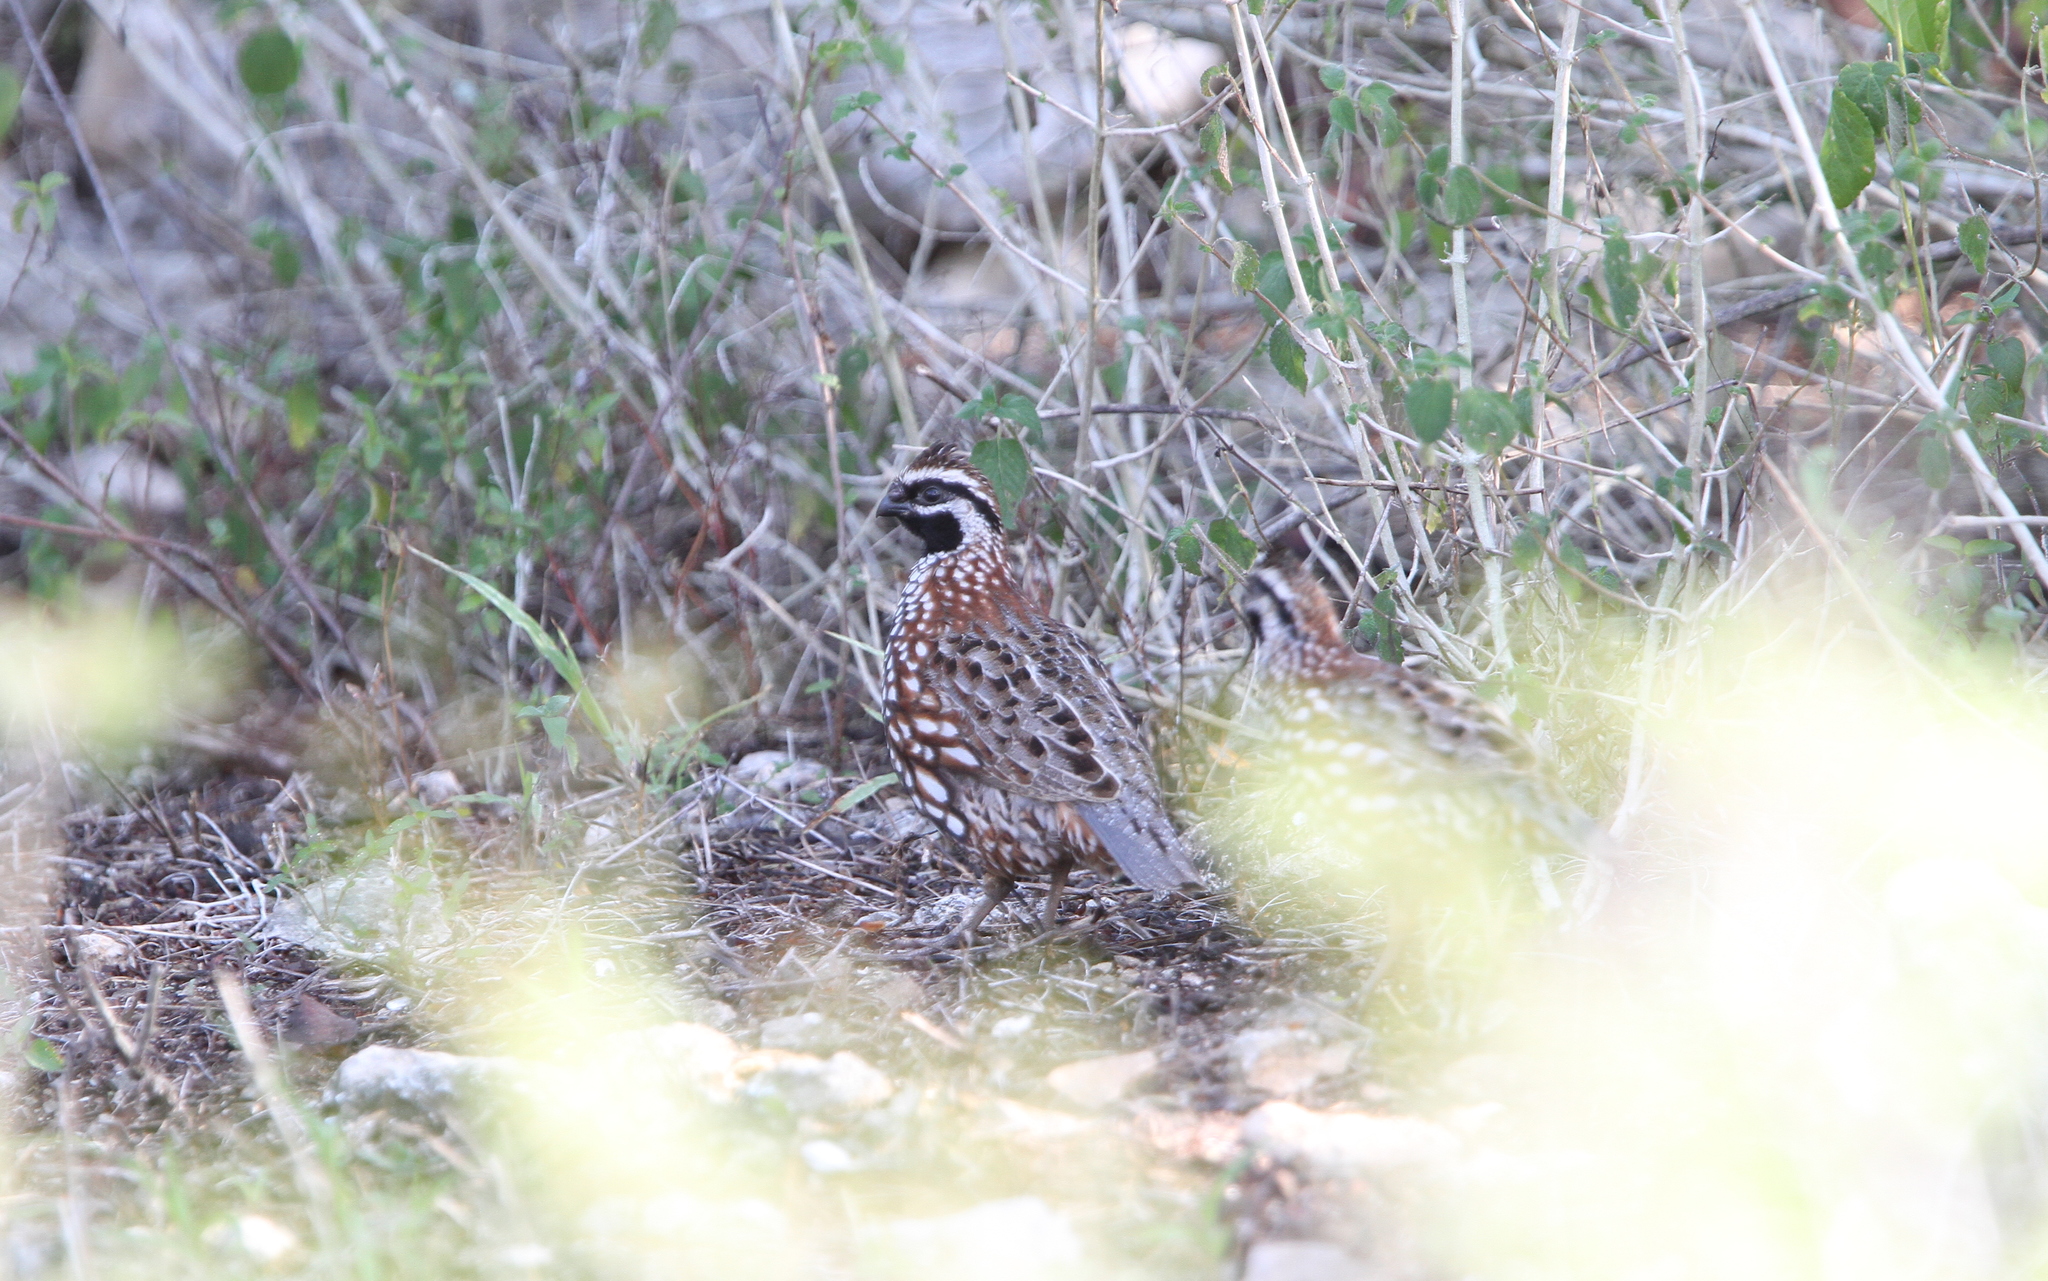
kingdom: Animalia
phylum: Chordata
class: Aves
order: Galliformes
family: Odontophoridae
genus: Colinus
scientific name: Colinus nigrogularis
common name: Yucatan bobwhite
